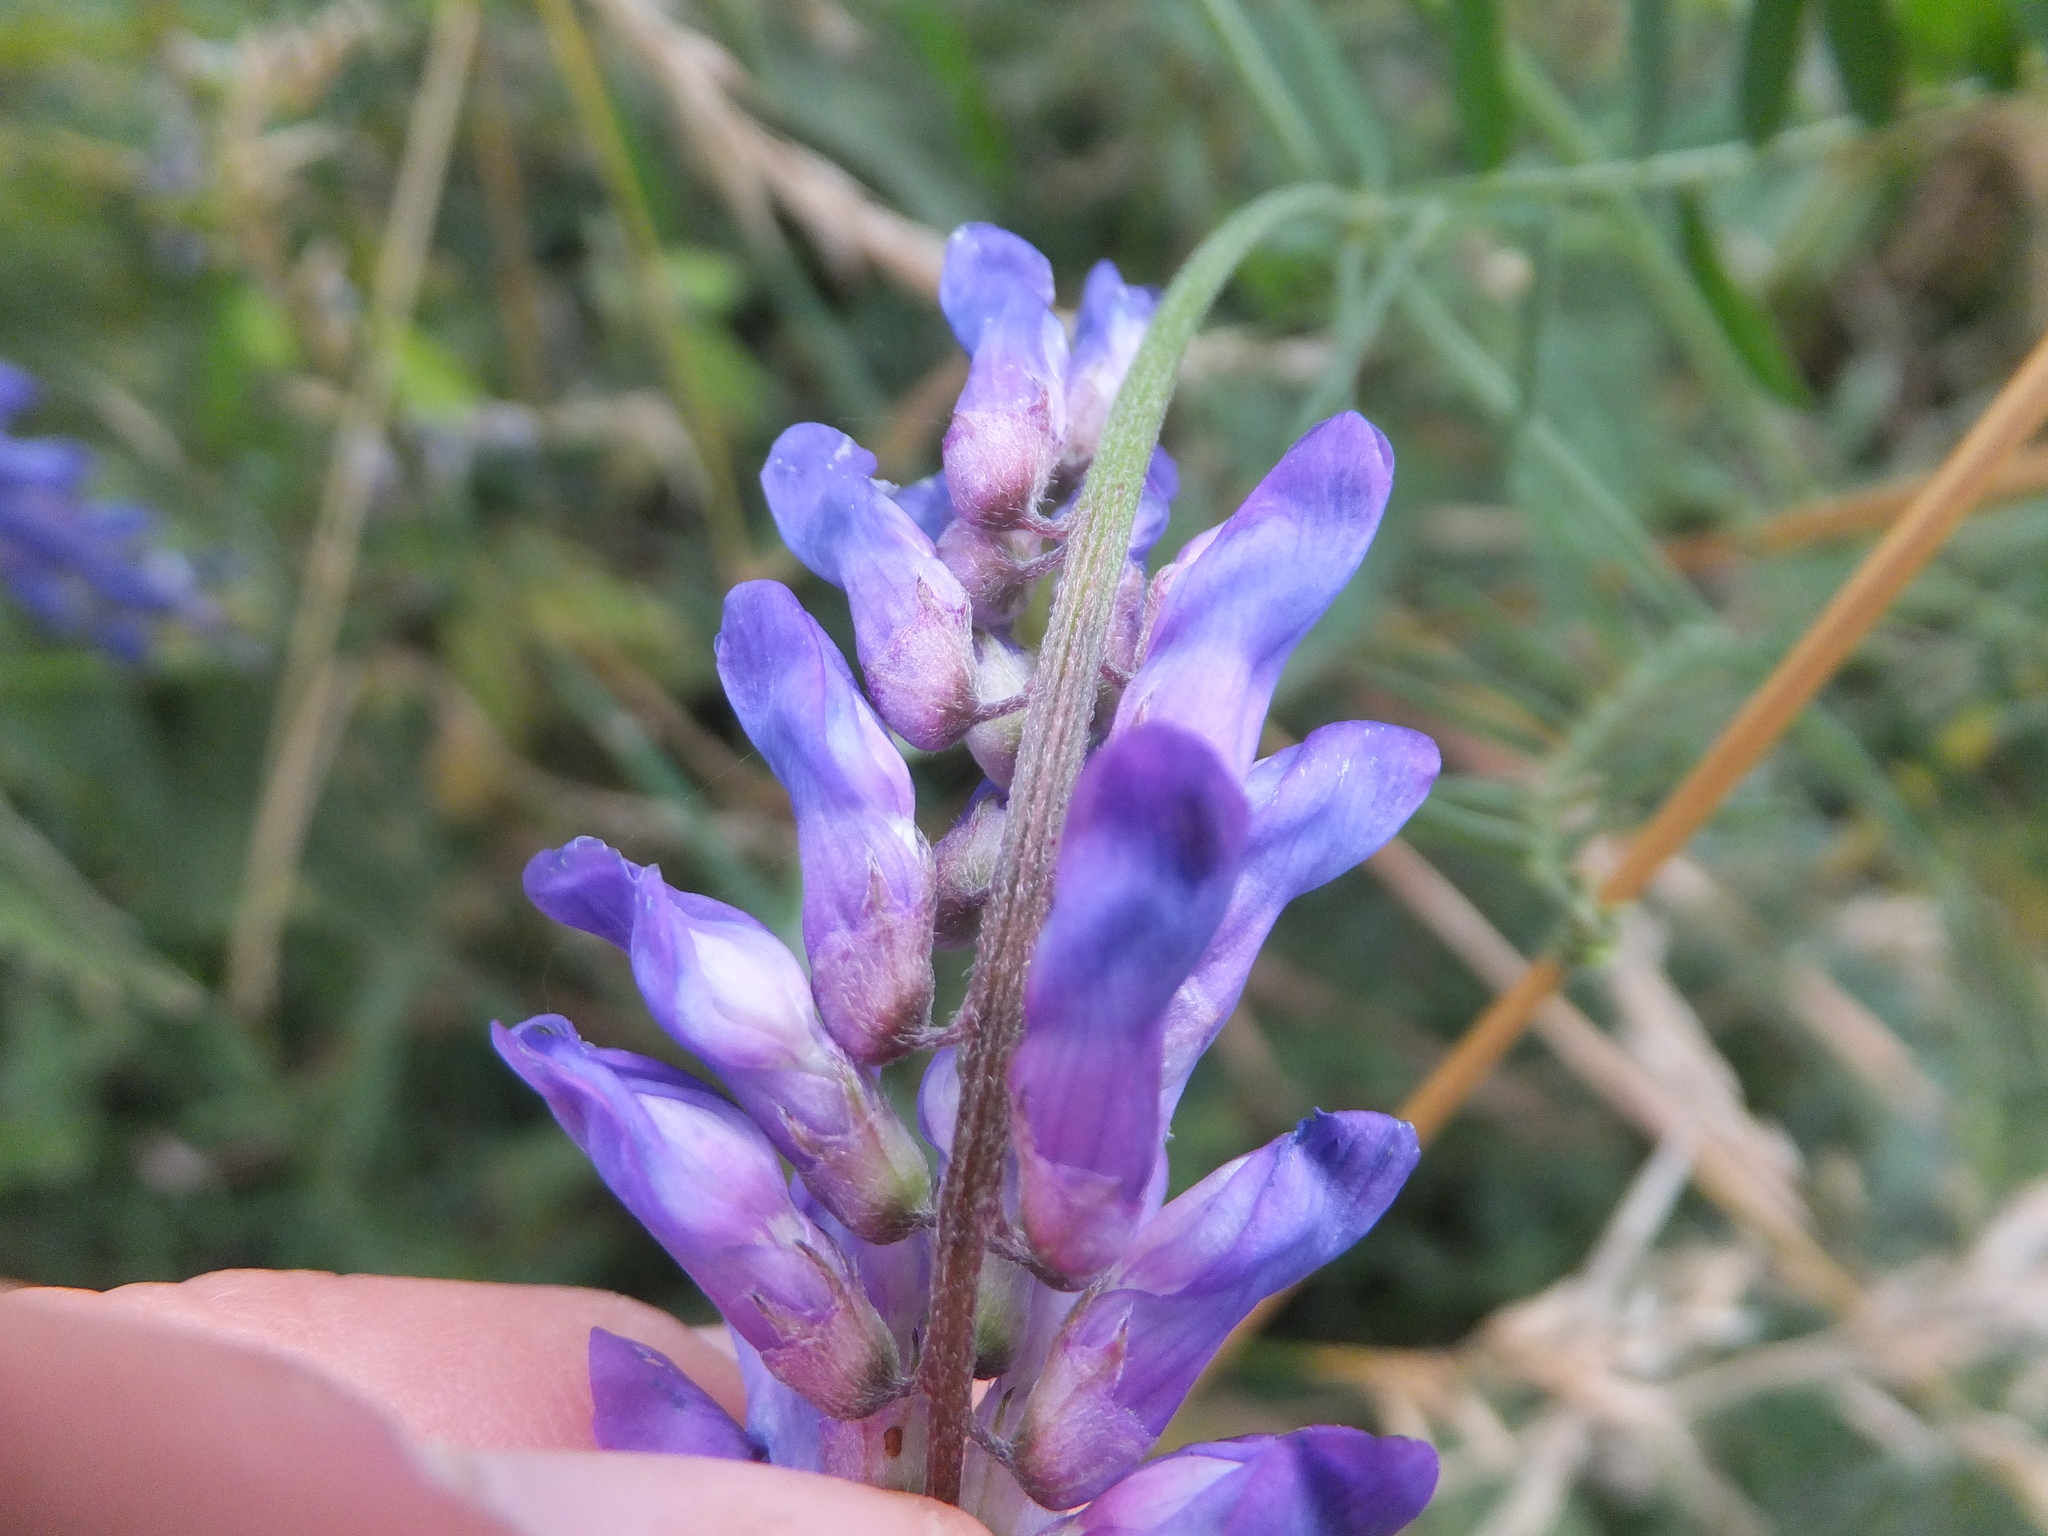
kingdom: Plantae
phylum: Tracheophyta
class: Magnoliopsida
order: Fabales
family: Fabaceae
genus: Vicia
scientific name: Vicia cracca
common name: Bird vetch
